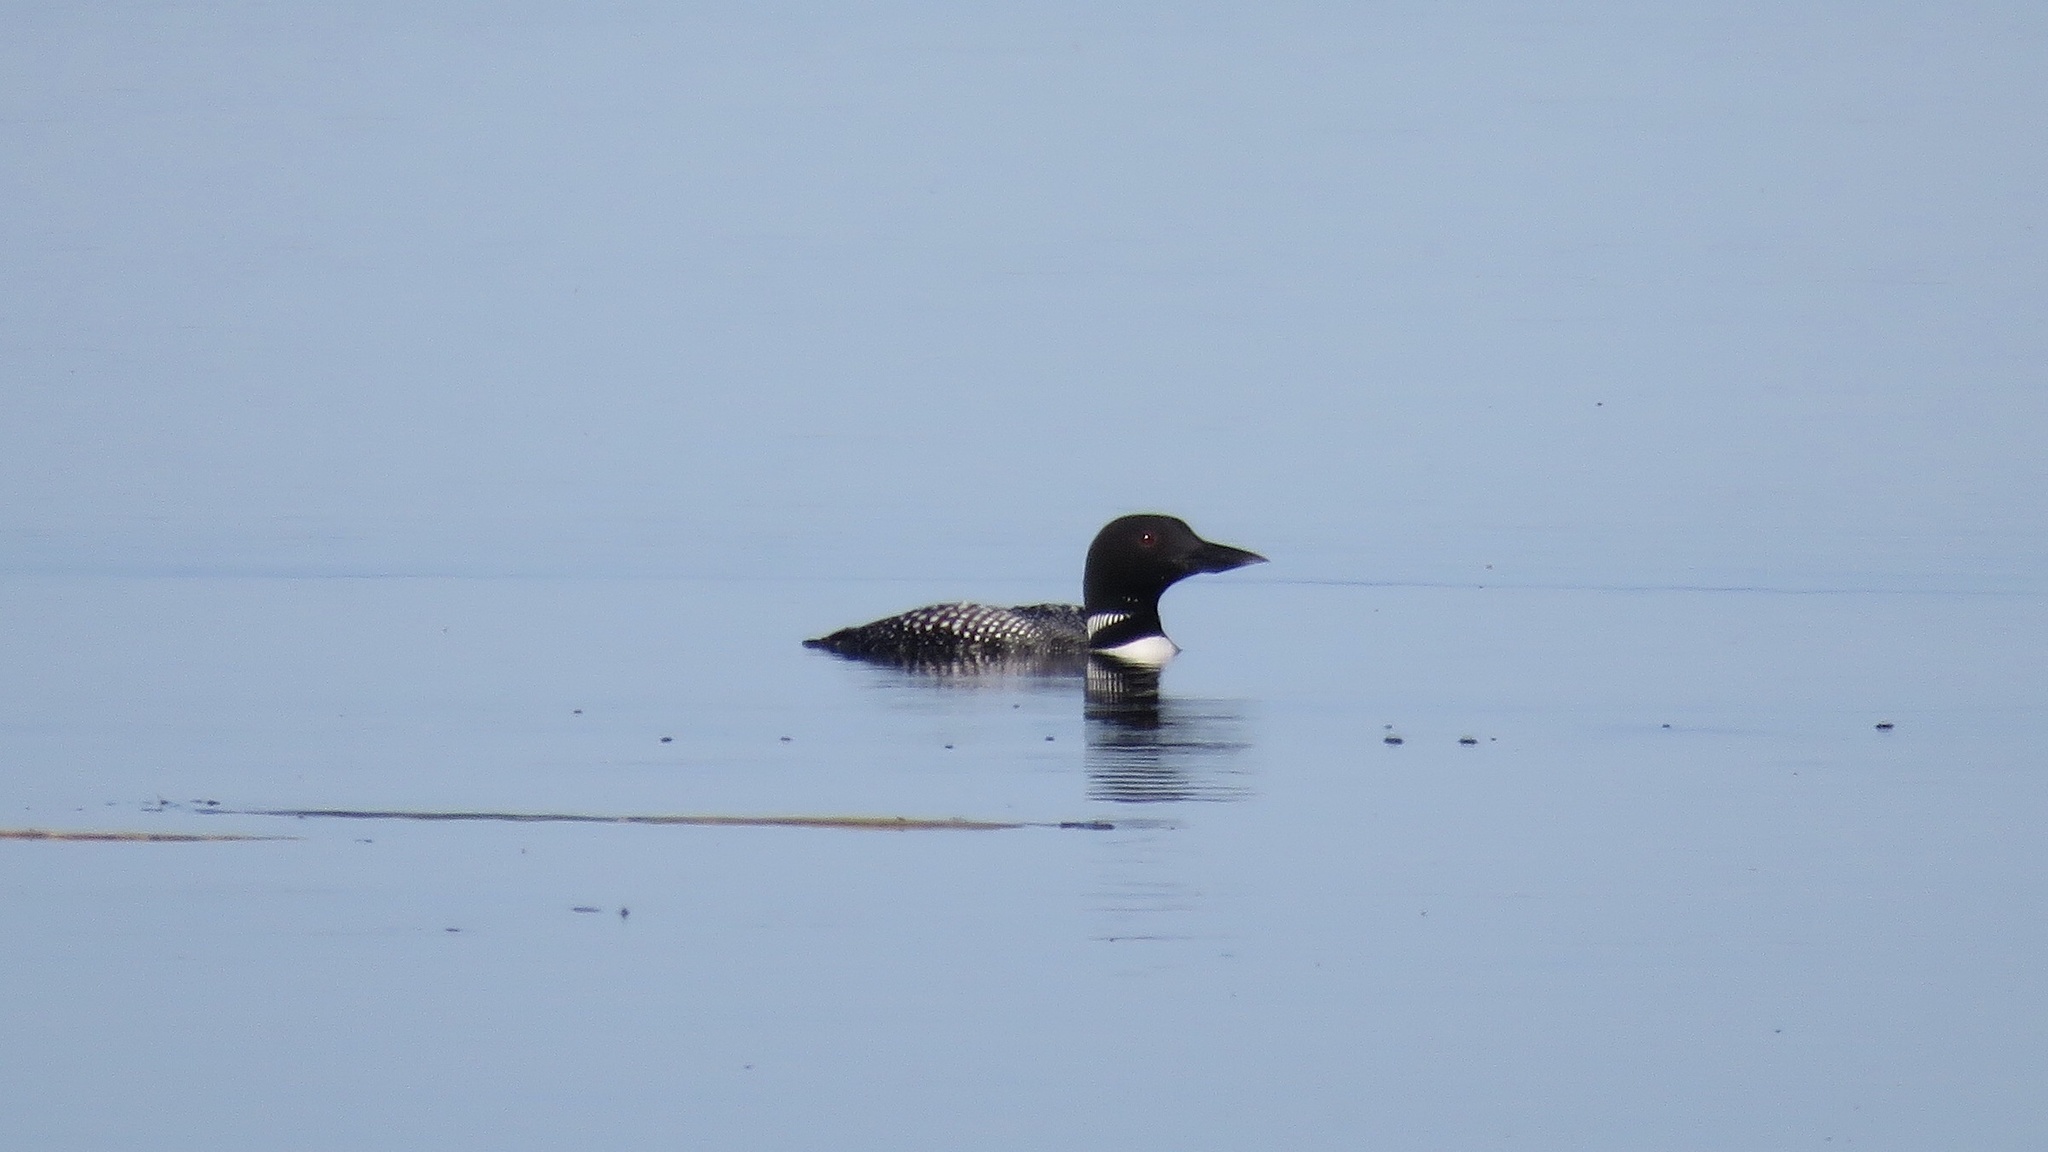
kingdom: Animalia
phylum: Chordata
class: Aves
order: Gaviiformes
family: Gaviidae
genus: Gavia
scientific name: Gavia immer
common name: Common loon
